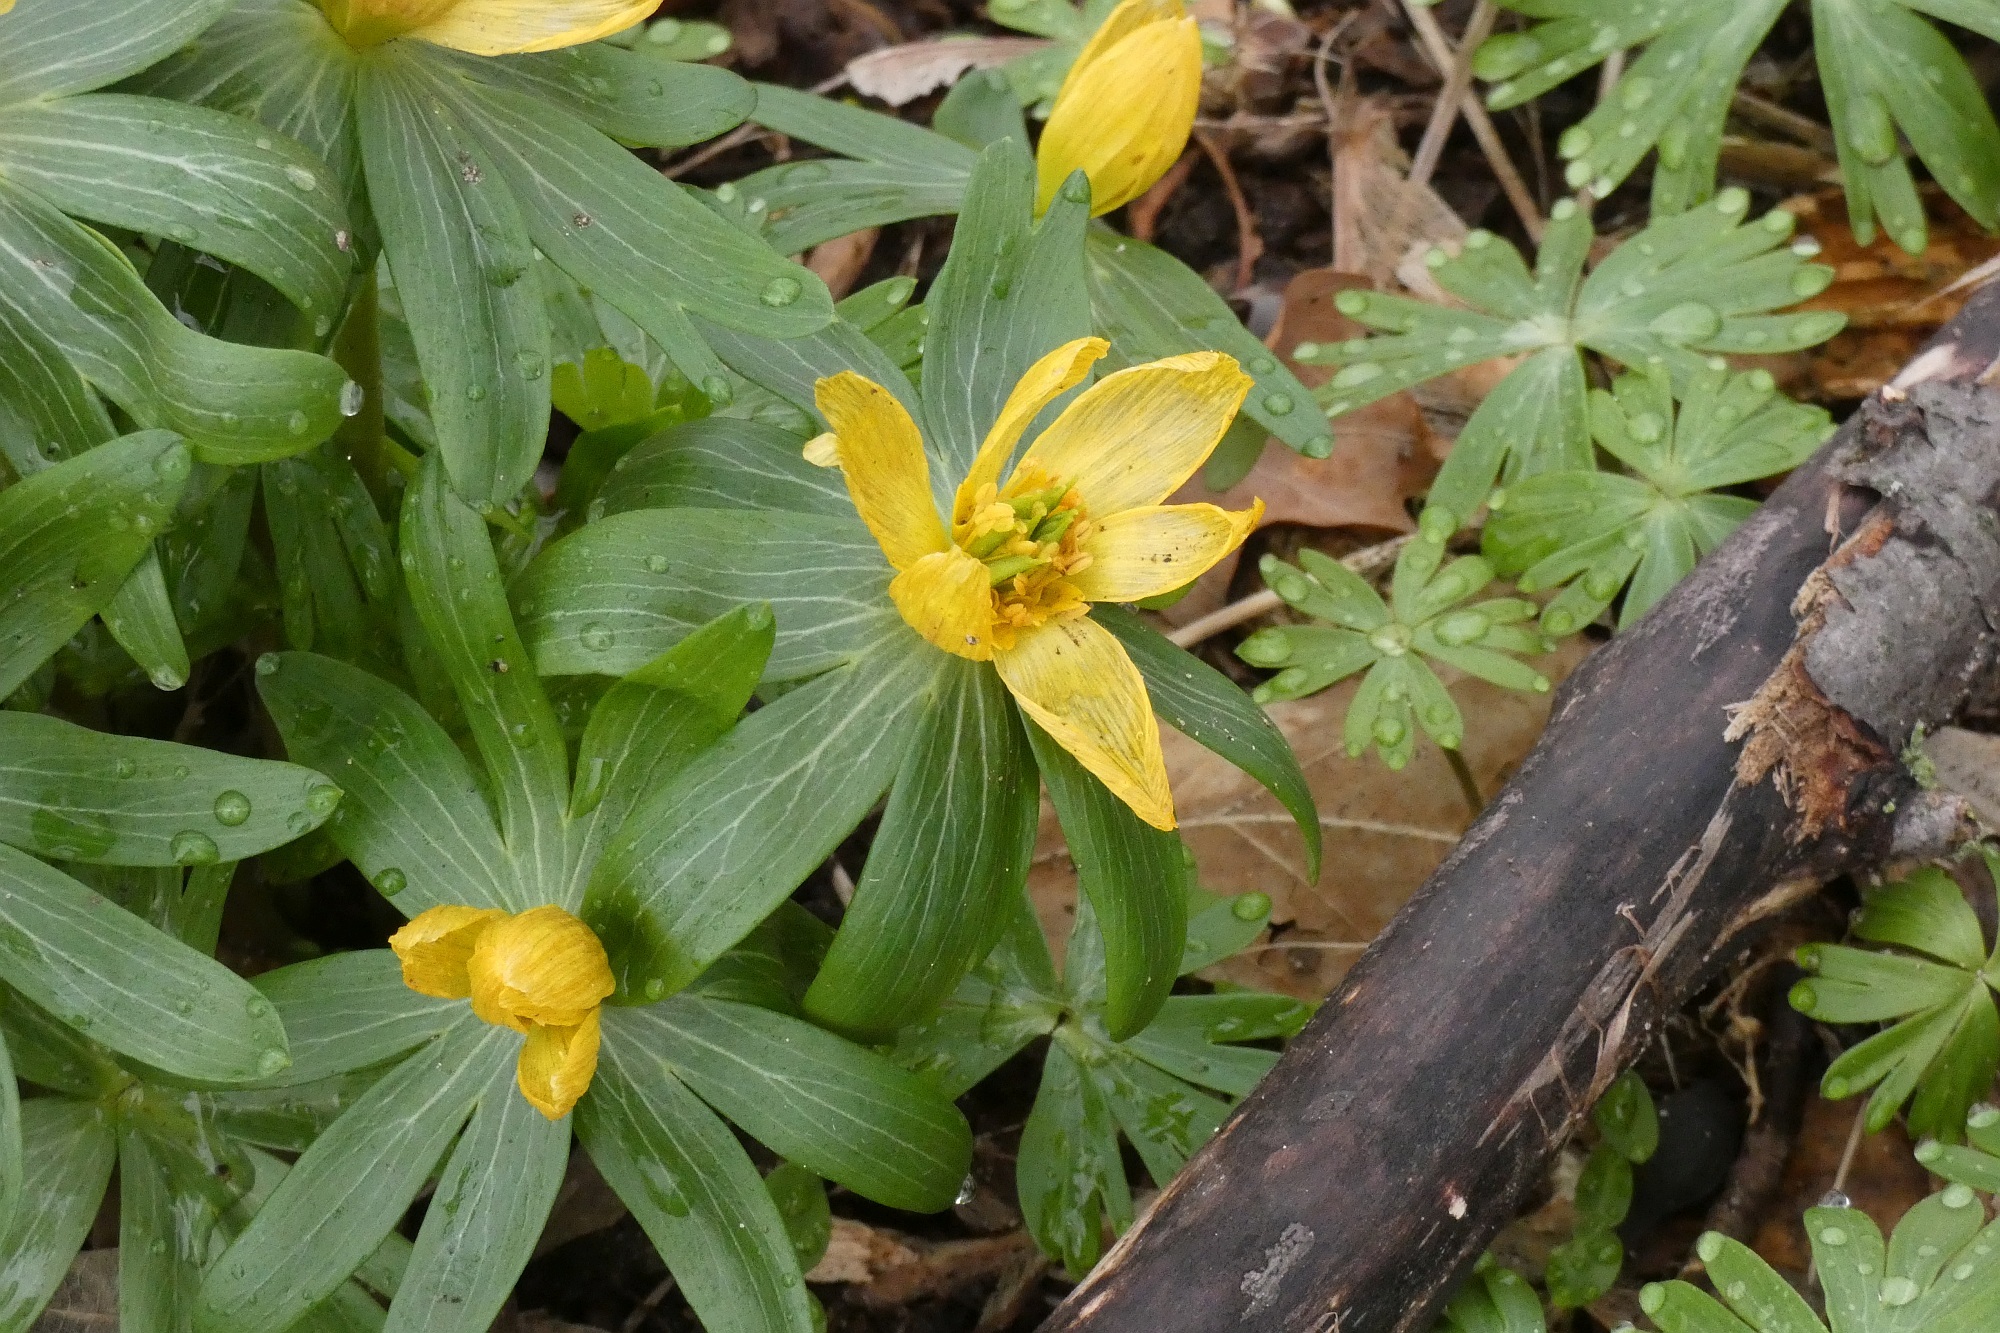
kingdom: Plantae
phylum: Tracheophyta
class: Magnoliopsida
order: Ranunculales
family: Ranunculaceae
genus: Eranthis
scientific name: Eranthis hyemalis
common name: Winter aconite
